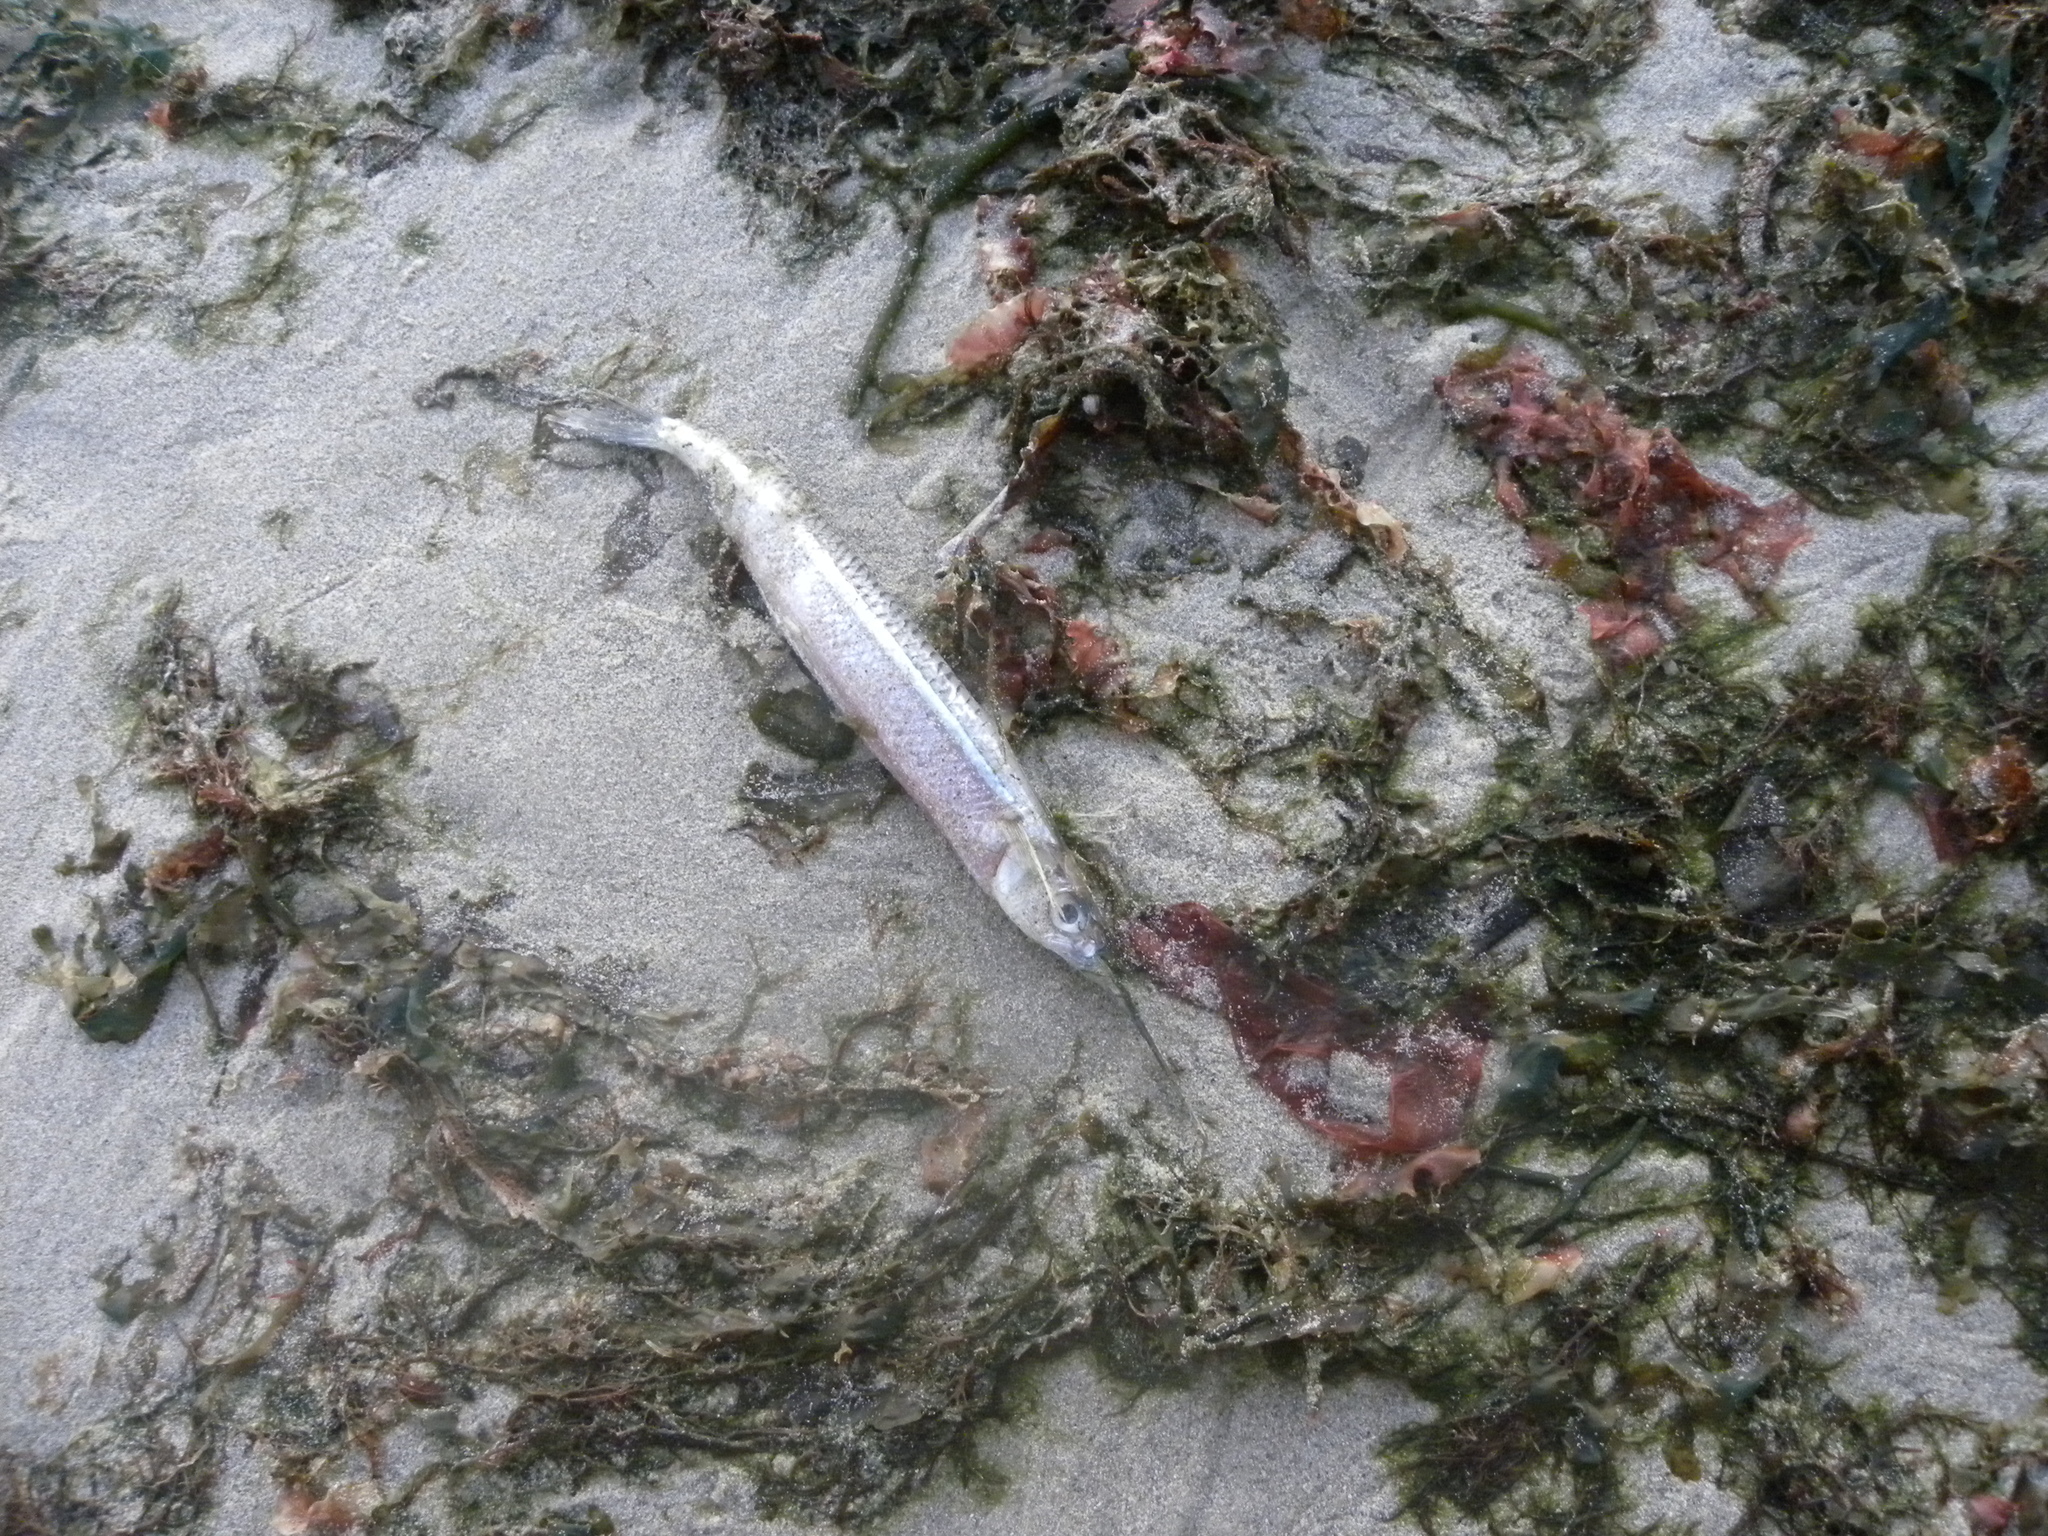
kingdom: Animalia
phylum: Chordata
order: Beloniformes
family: Hemiramphidae
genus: Hyporhamphus
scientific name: Hyporhamphus unifasciatus
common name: Halfbeak
